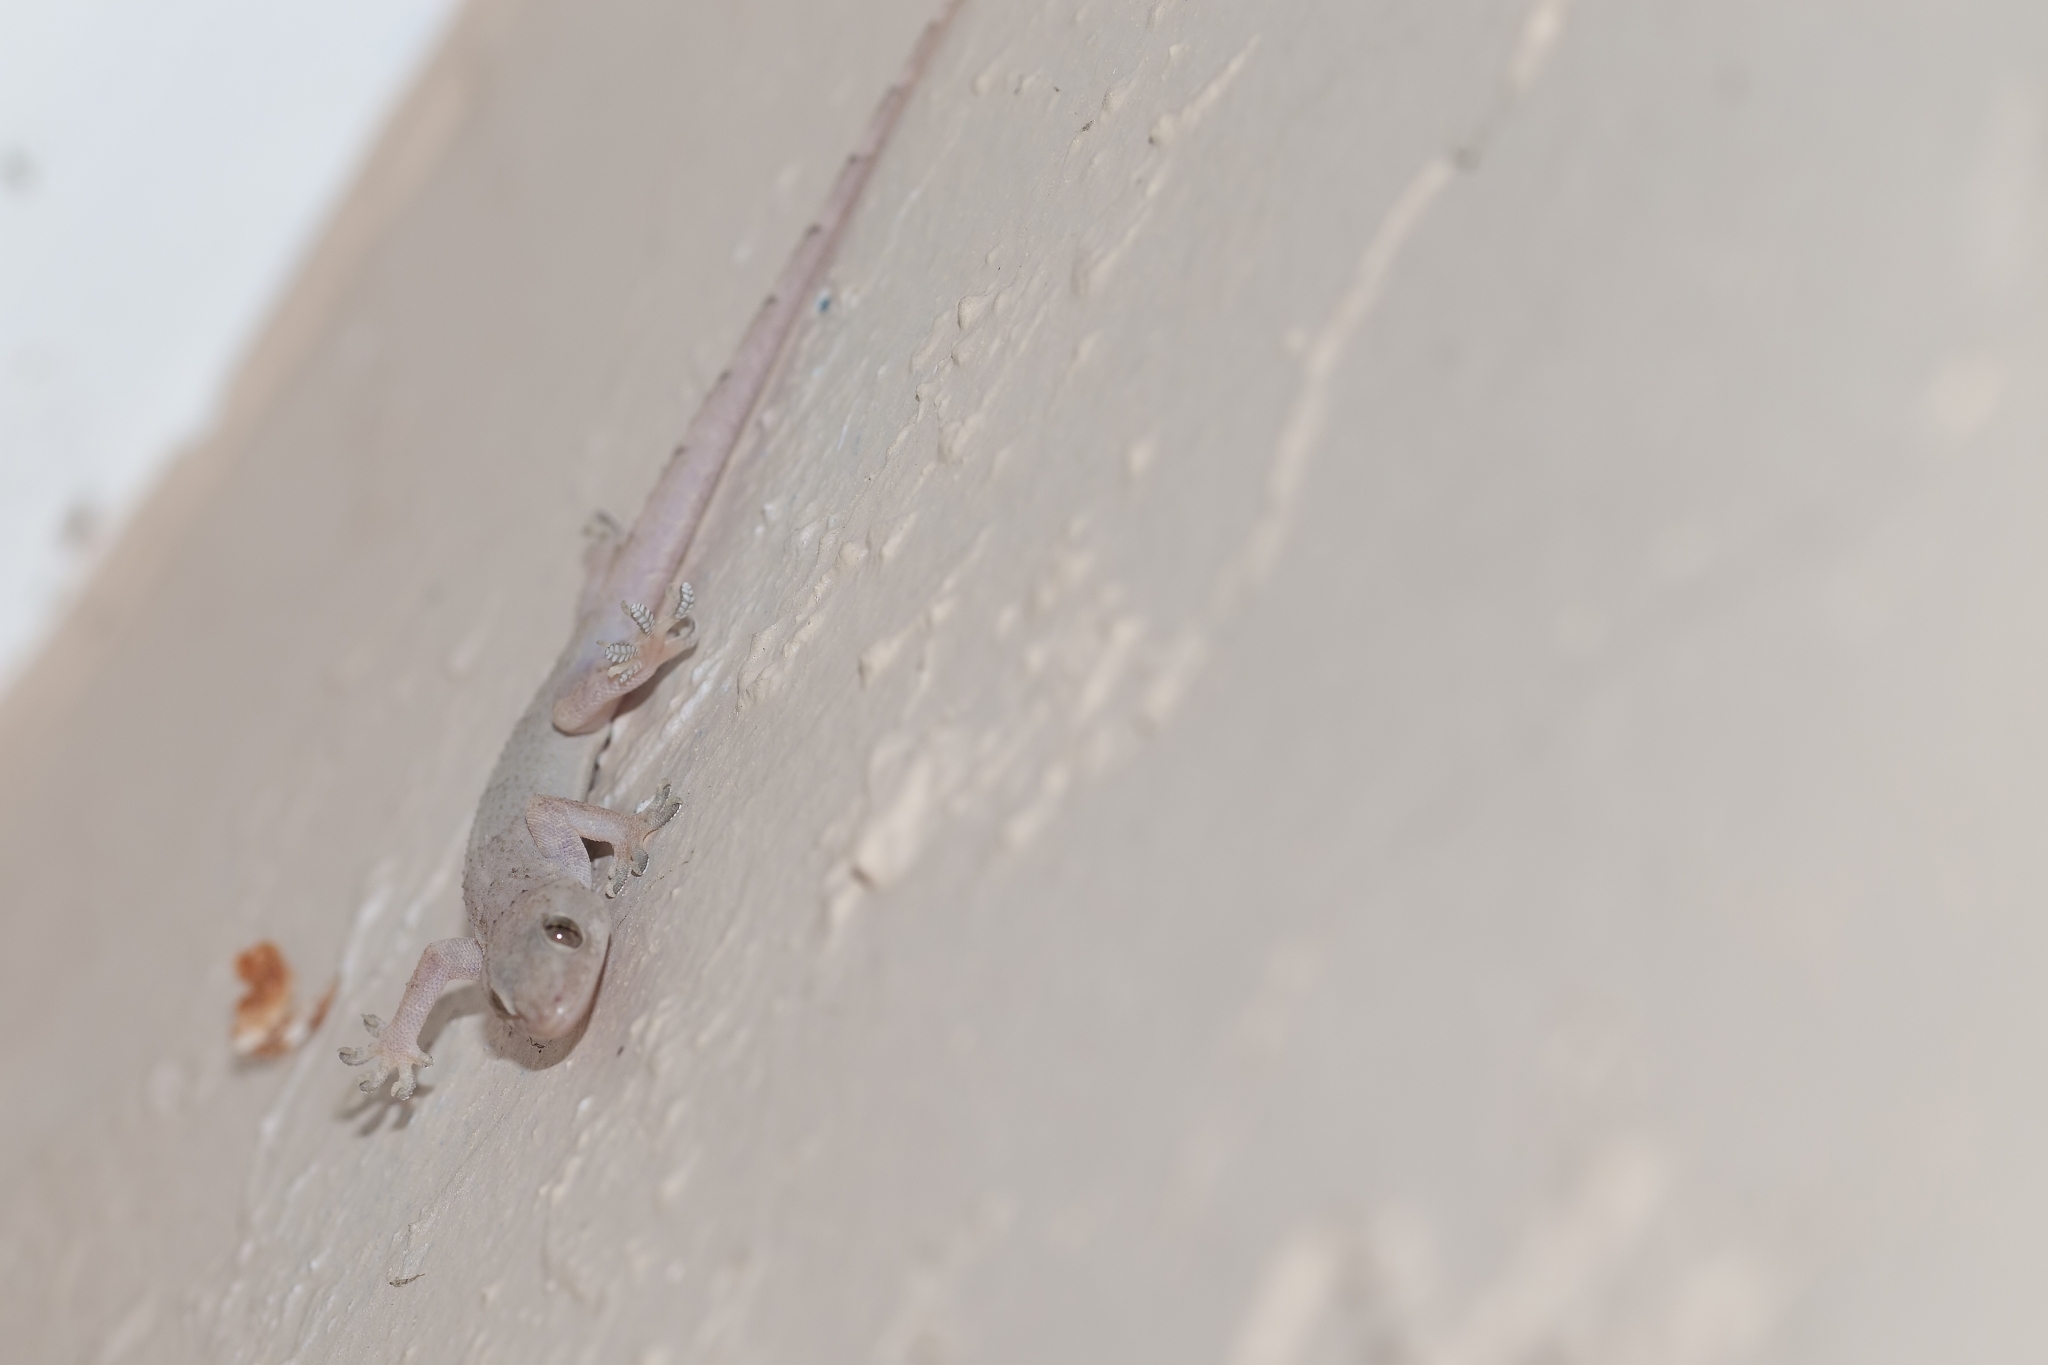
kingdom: Animalia
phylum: Chordata
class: Squamata
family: Gekkonidae
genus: Hemidactylus
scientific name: Hemidactylus mabouia
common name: House gecko
